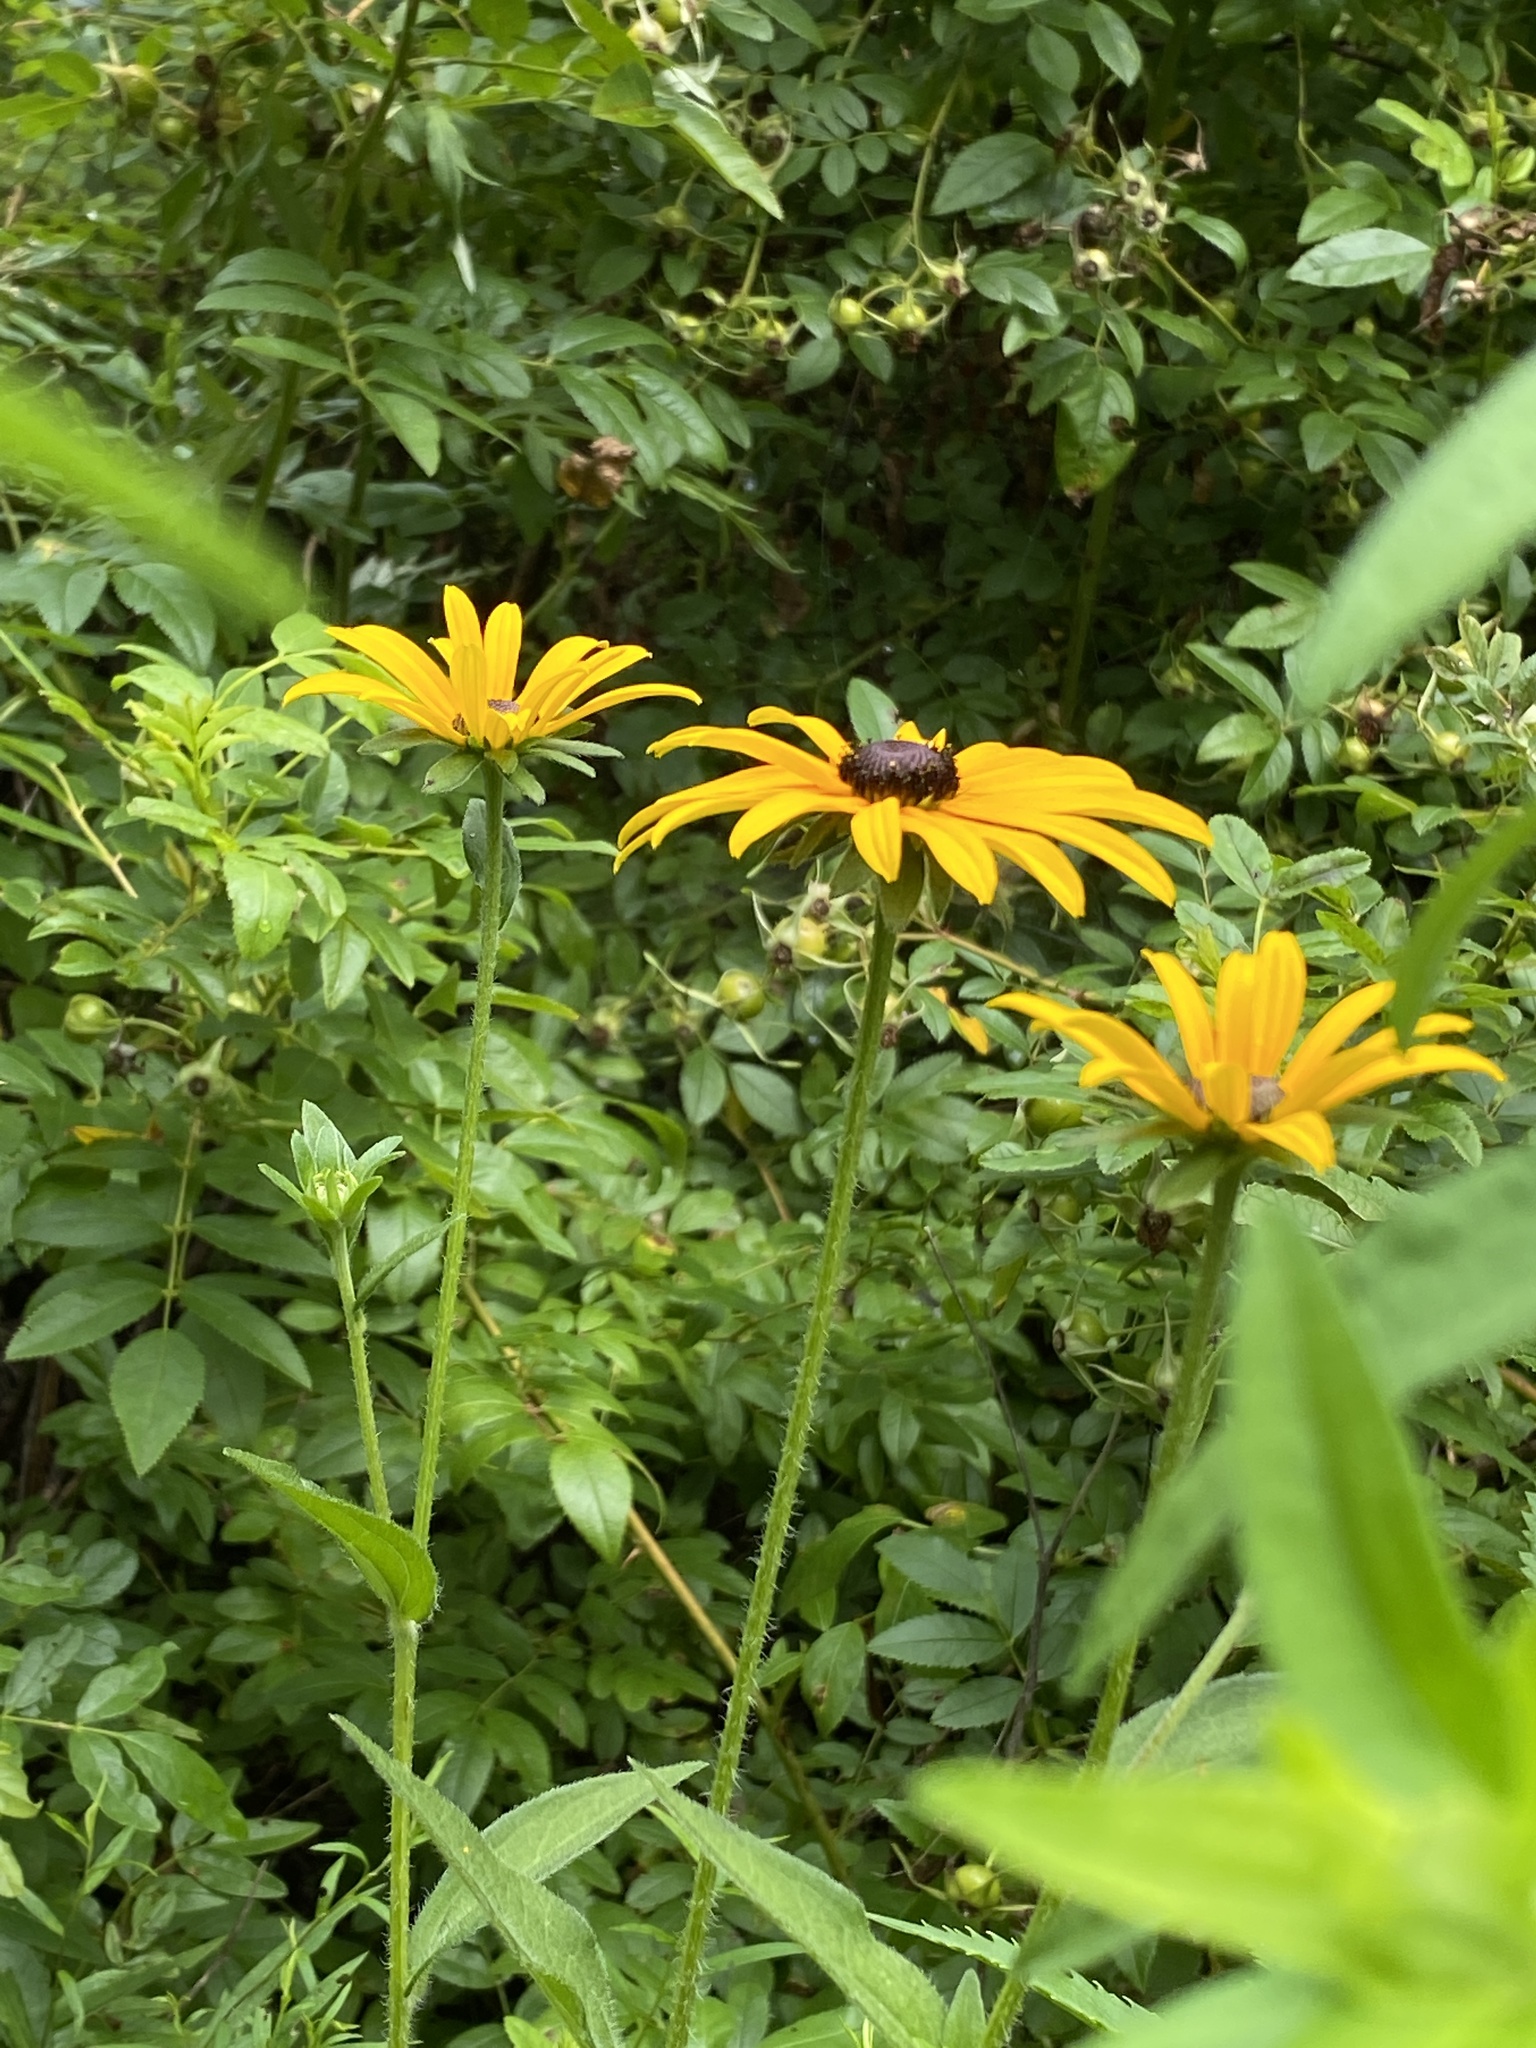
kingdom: Plantae
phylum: Tracheophyta
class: Magnoliopsida
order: Asterales
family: Asteraceae
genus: Rudbeckia
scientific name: Rudbeckia hirta
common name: Black-eyed-susan
